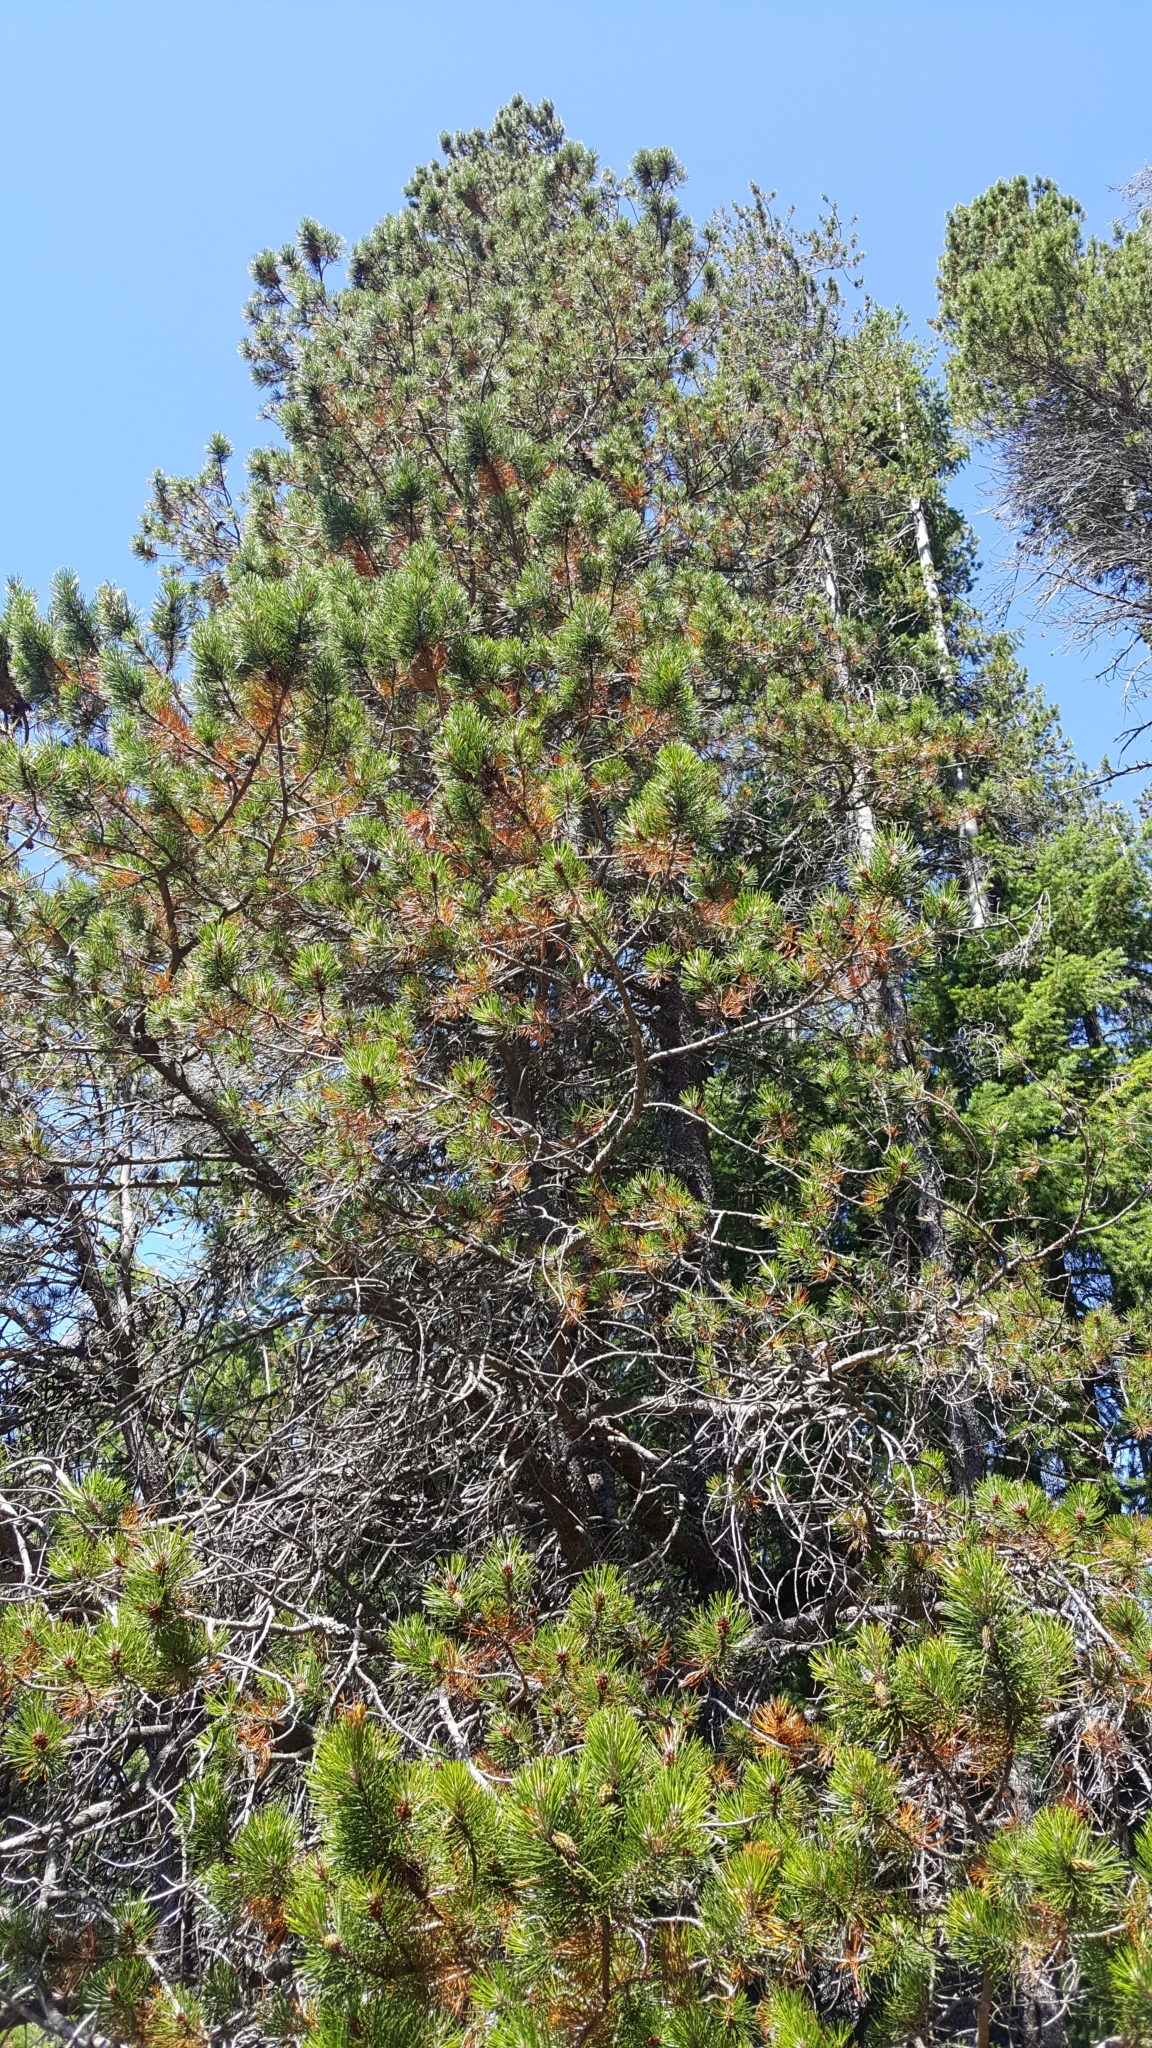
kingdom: Plantae
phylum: Tracheophyta
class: Pinopsida
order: Pinales
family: Pinaceae
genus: Pinus
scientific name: Pinus contorta
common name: Lodgepole pine
